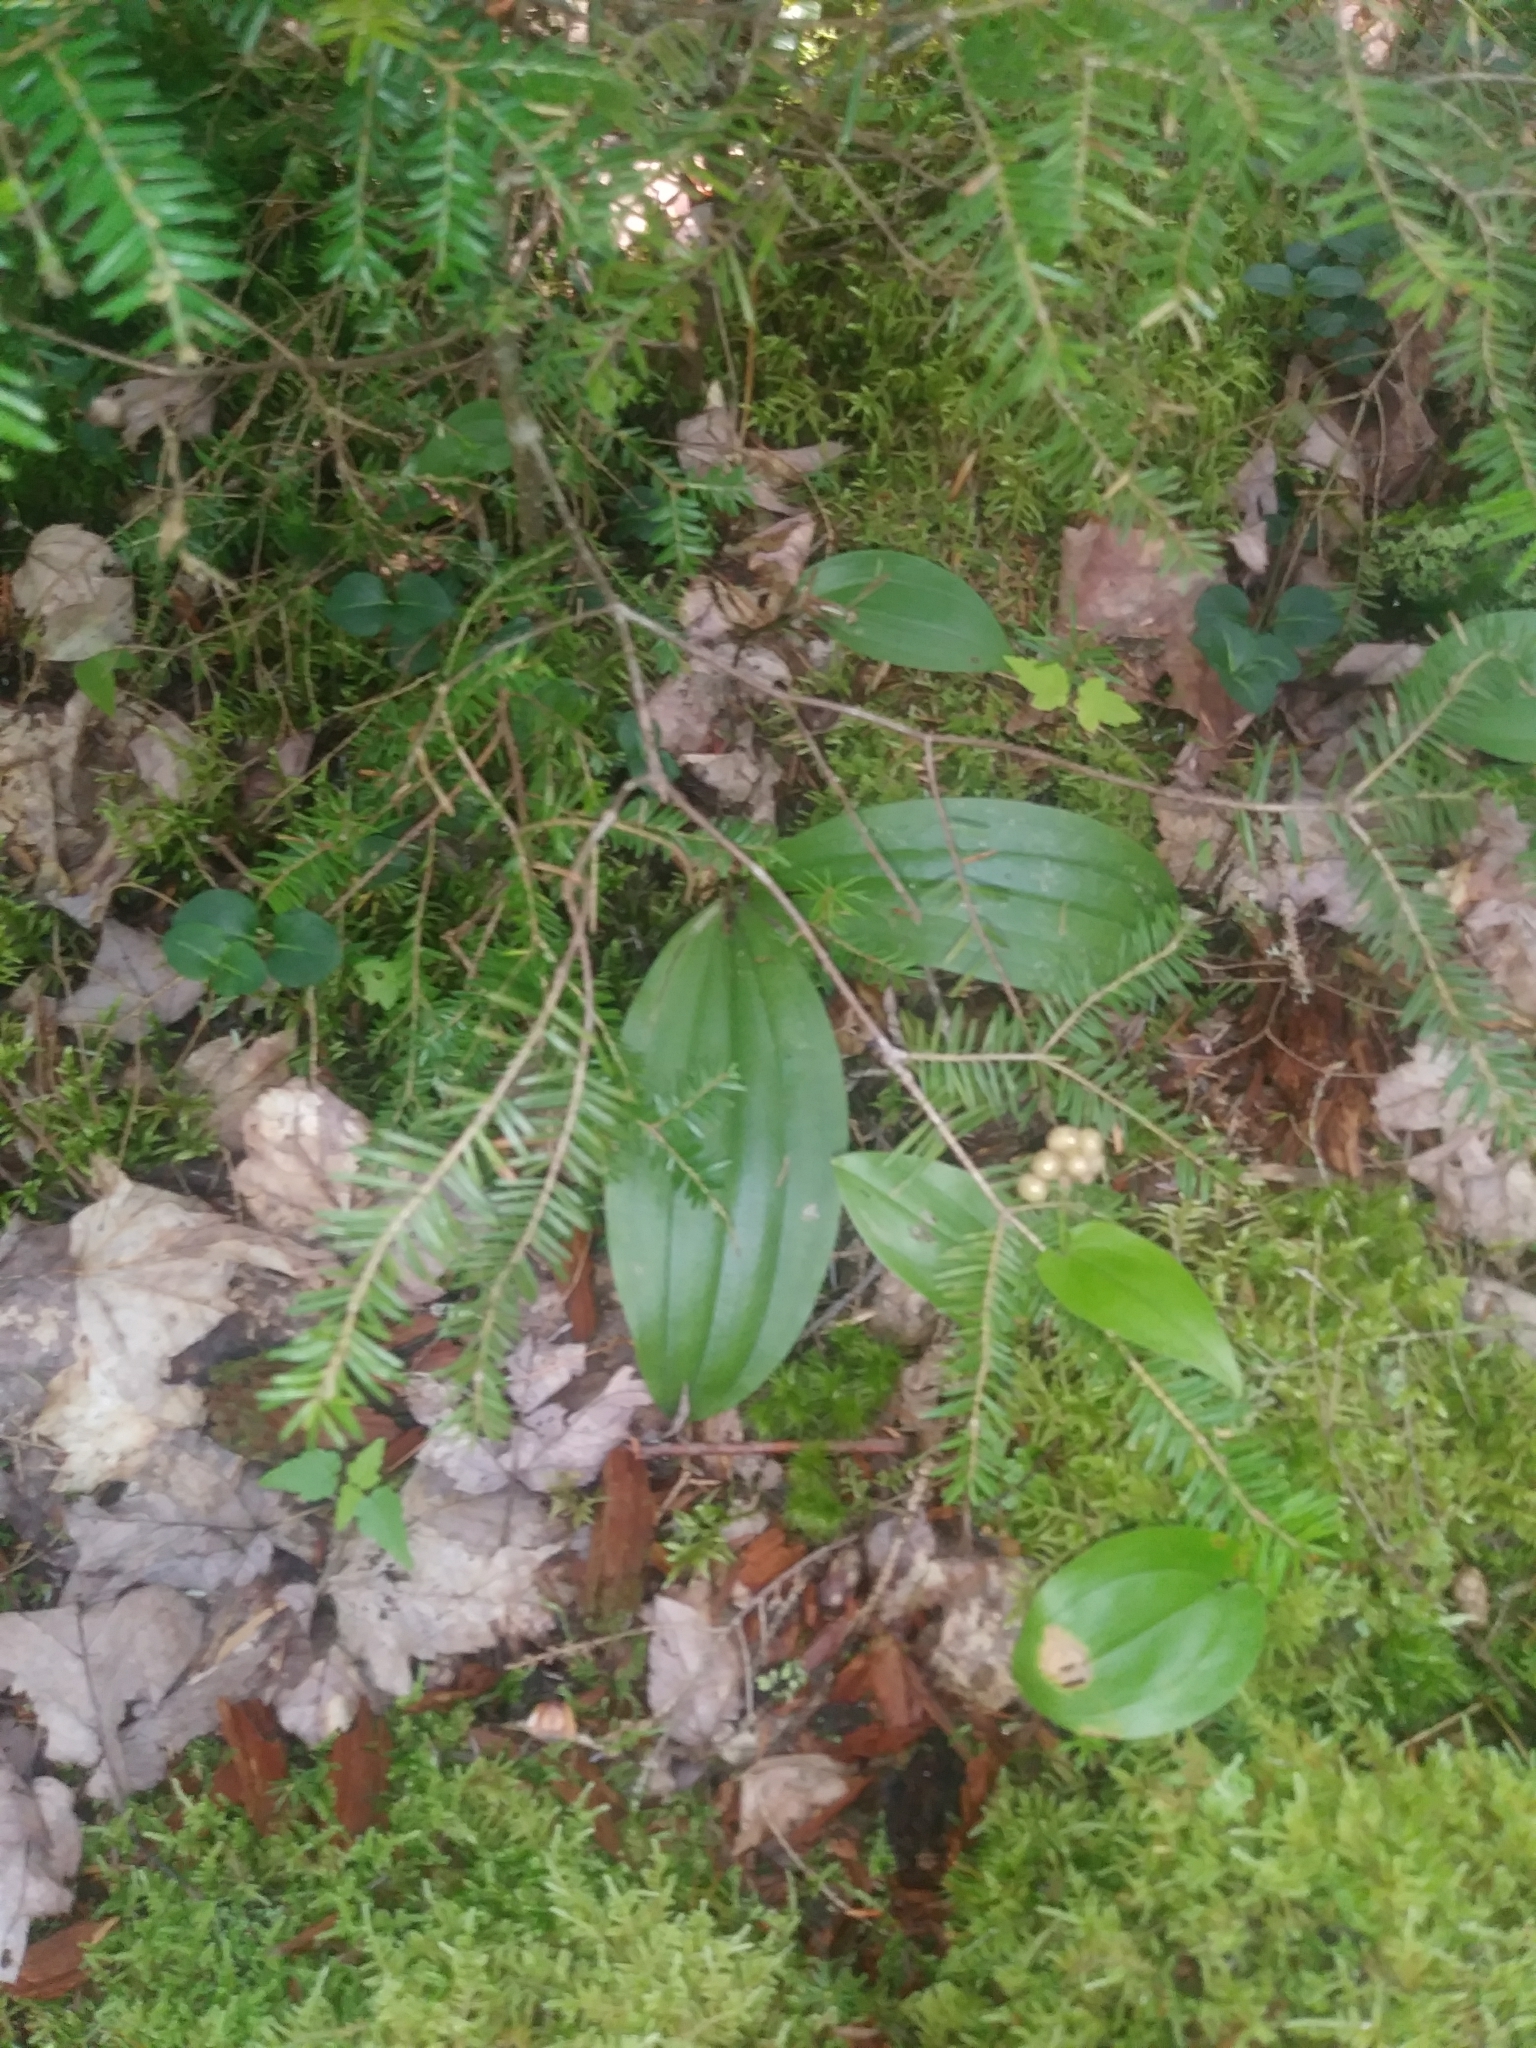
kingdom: Plantae
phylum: Tracheophyta
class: Liliopsida
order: Asparagales
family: Orchidaceae
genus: Cypripedium
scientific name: Cypripedium acaule
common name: Pink lady's-slipper
